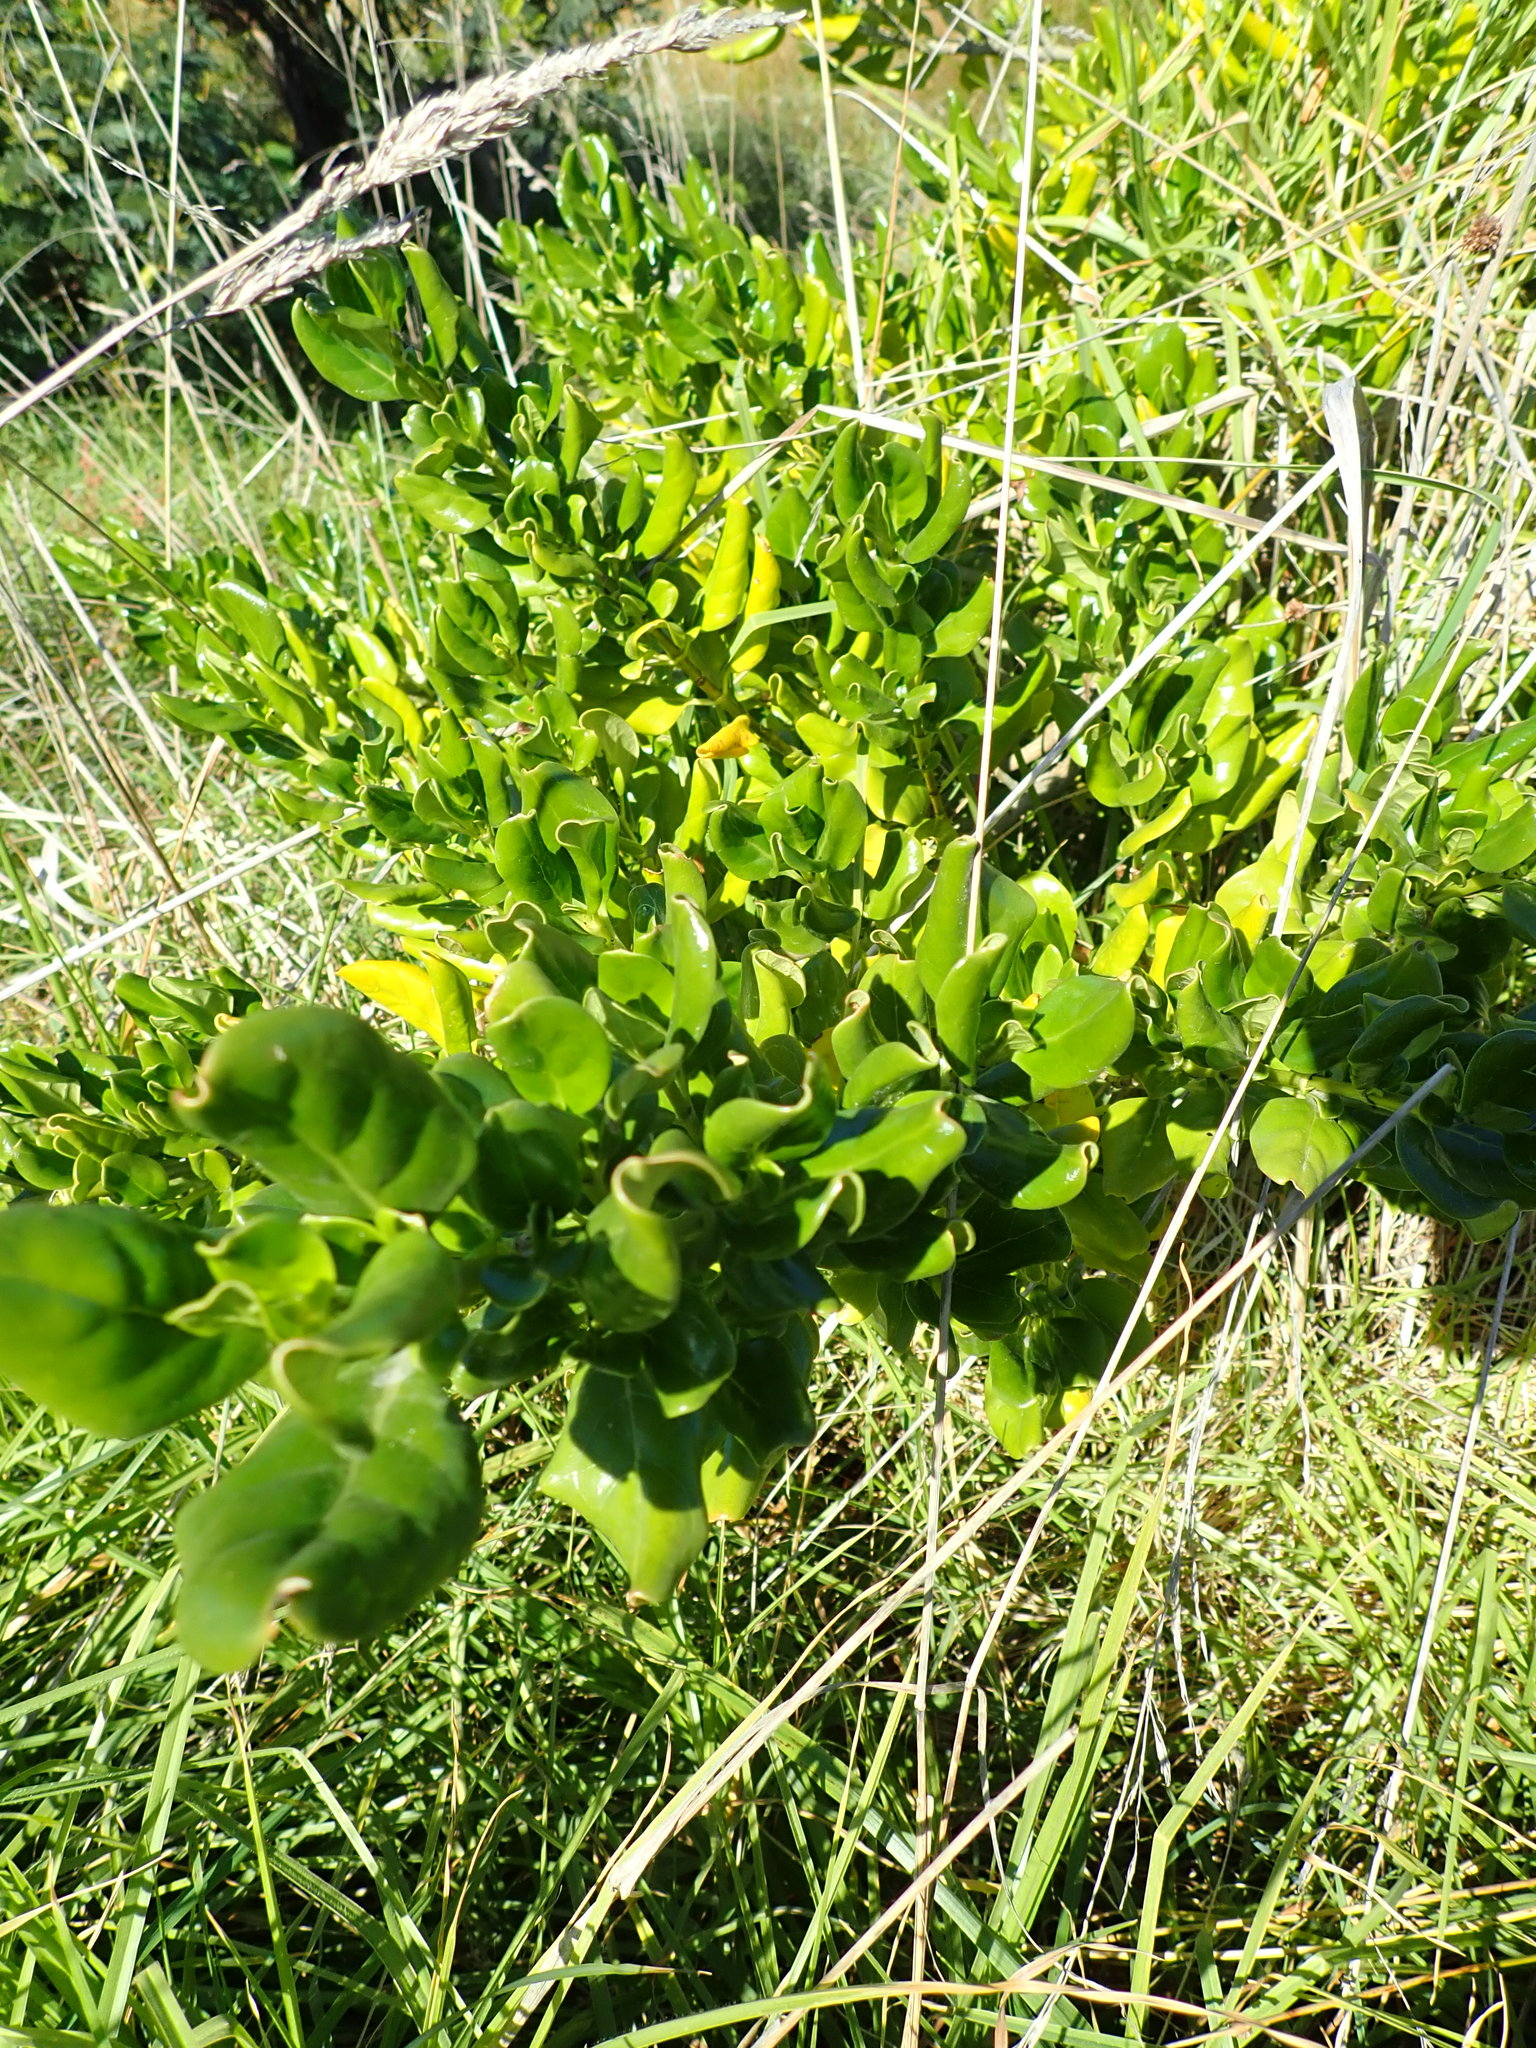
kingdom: Plantae
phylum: Tracheophyta
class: Magnoliopsida
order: Gentianales
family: Rubiaceae
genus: Coprosma
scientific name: Coprosma repens
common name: Tree bedstraw
